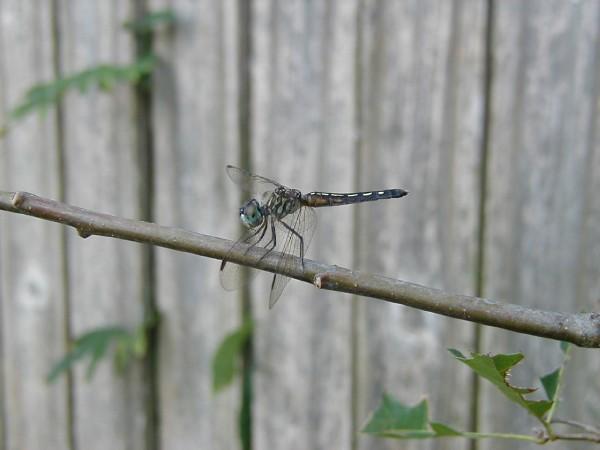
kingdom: Animalia
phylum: Arthropoda
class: Insecta
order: Odonata
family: Libellulidae
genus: Pachydiplax
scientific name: Pachydiplax longipennis
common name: Blue dasher
